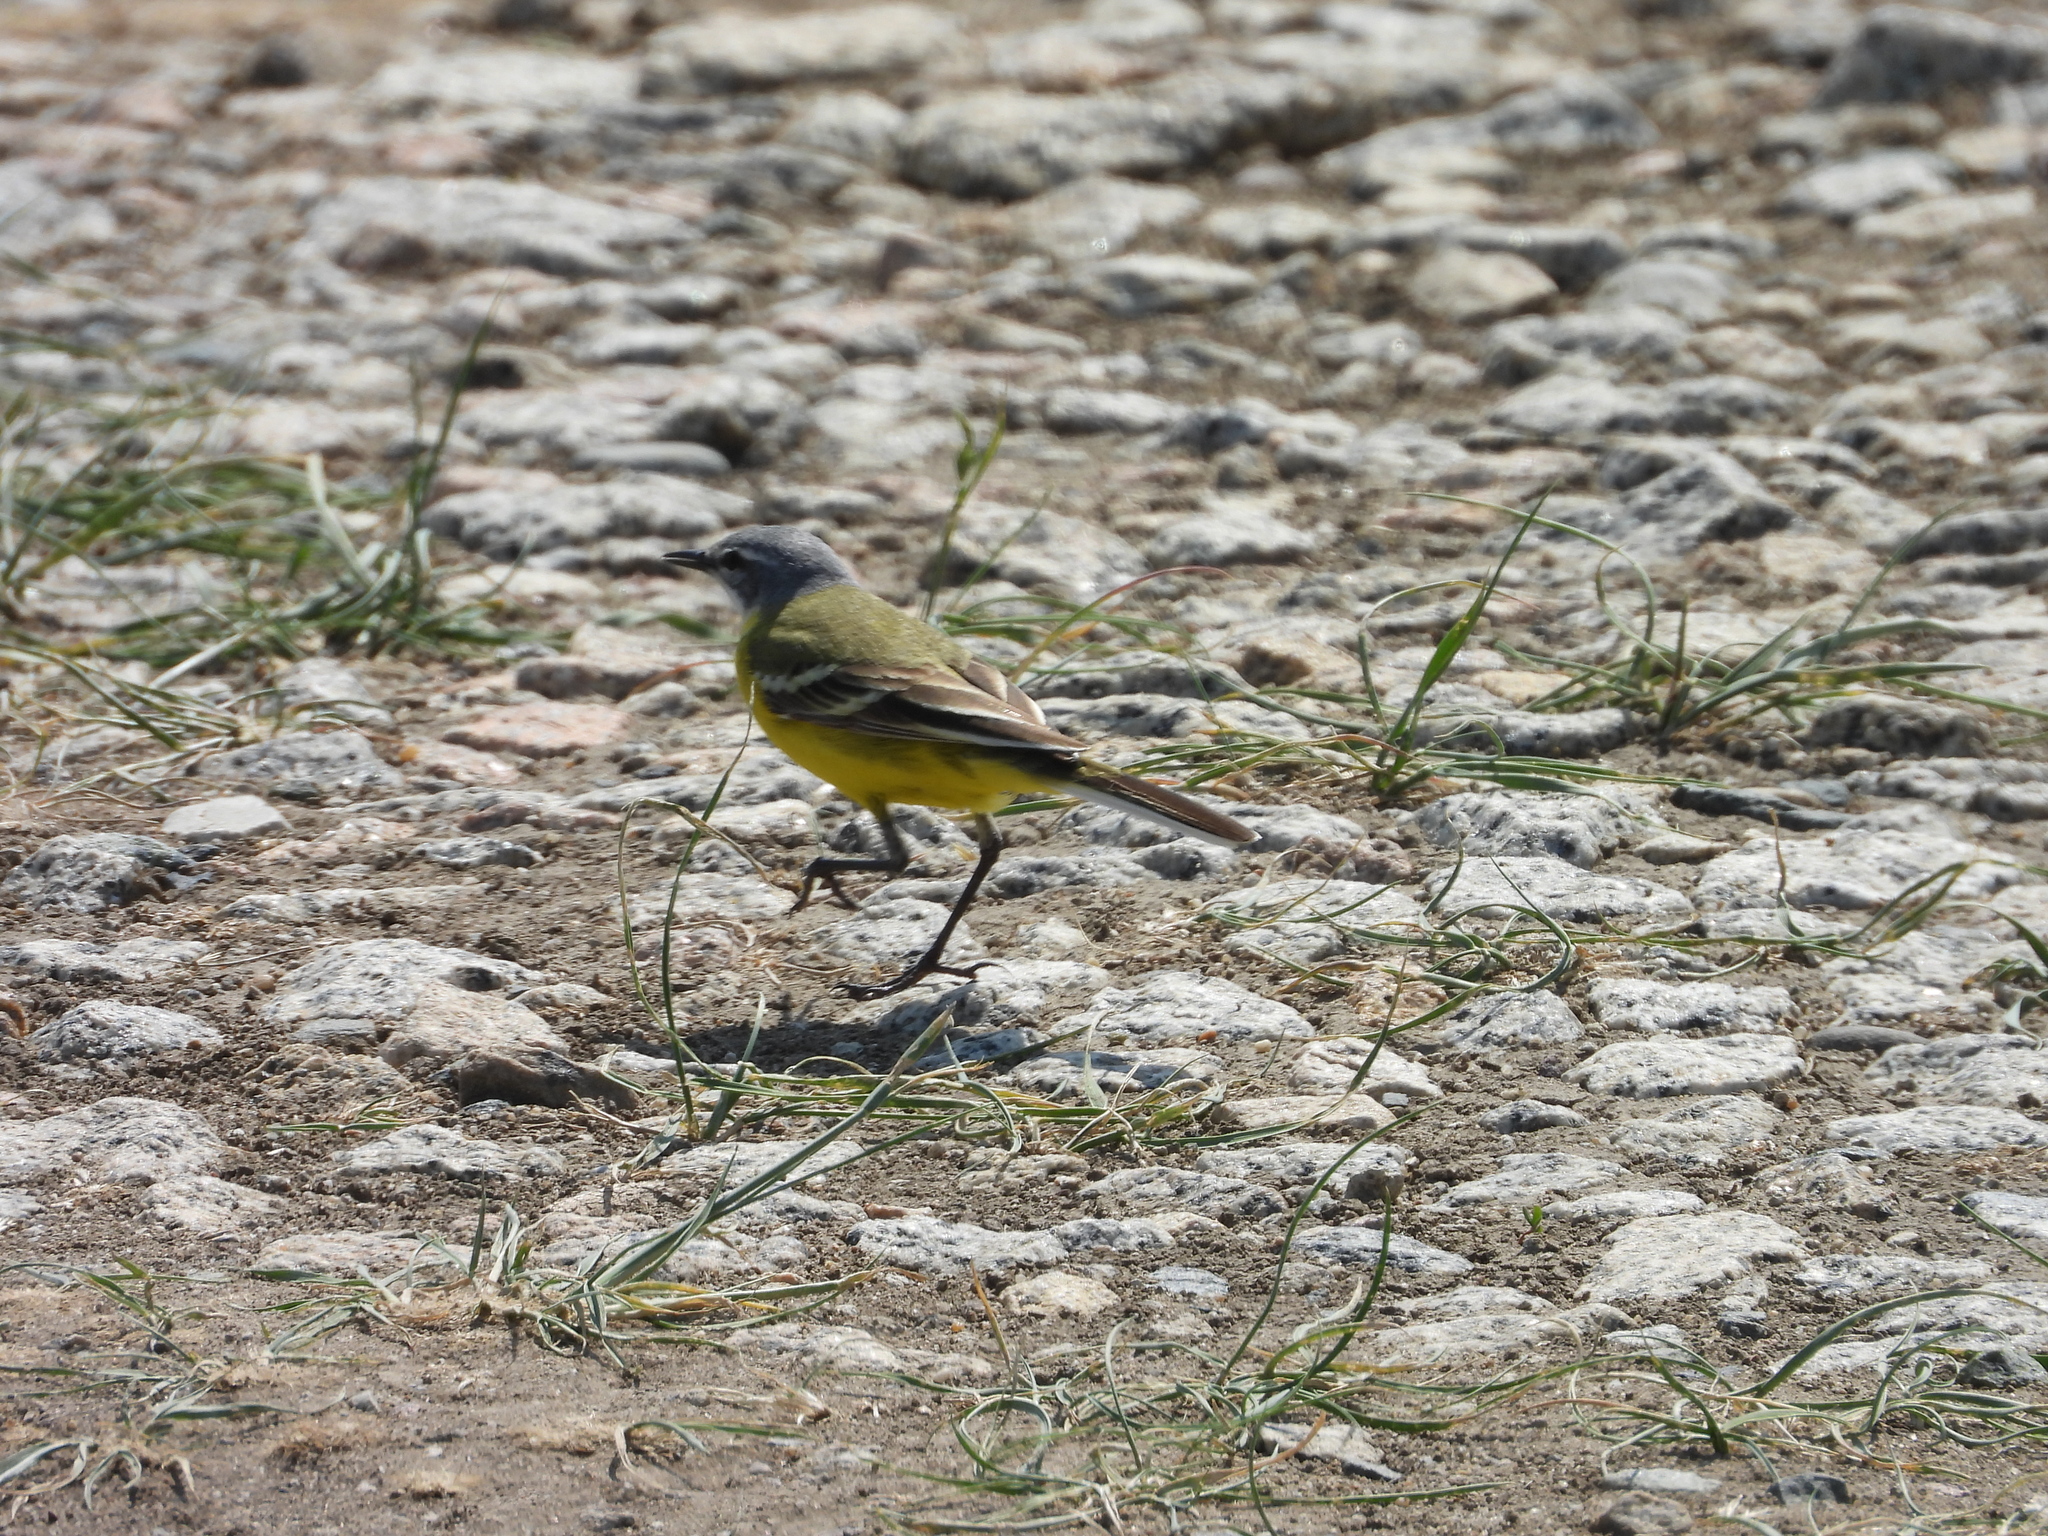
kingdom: Animalia
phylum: Chordata
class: Aves
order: Passeriformes
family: Motacillidae
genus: Motacilla
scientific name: Motacilla flava
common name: Western yellow wagtail
